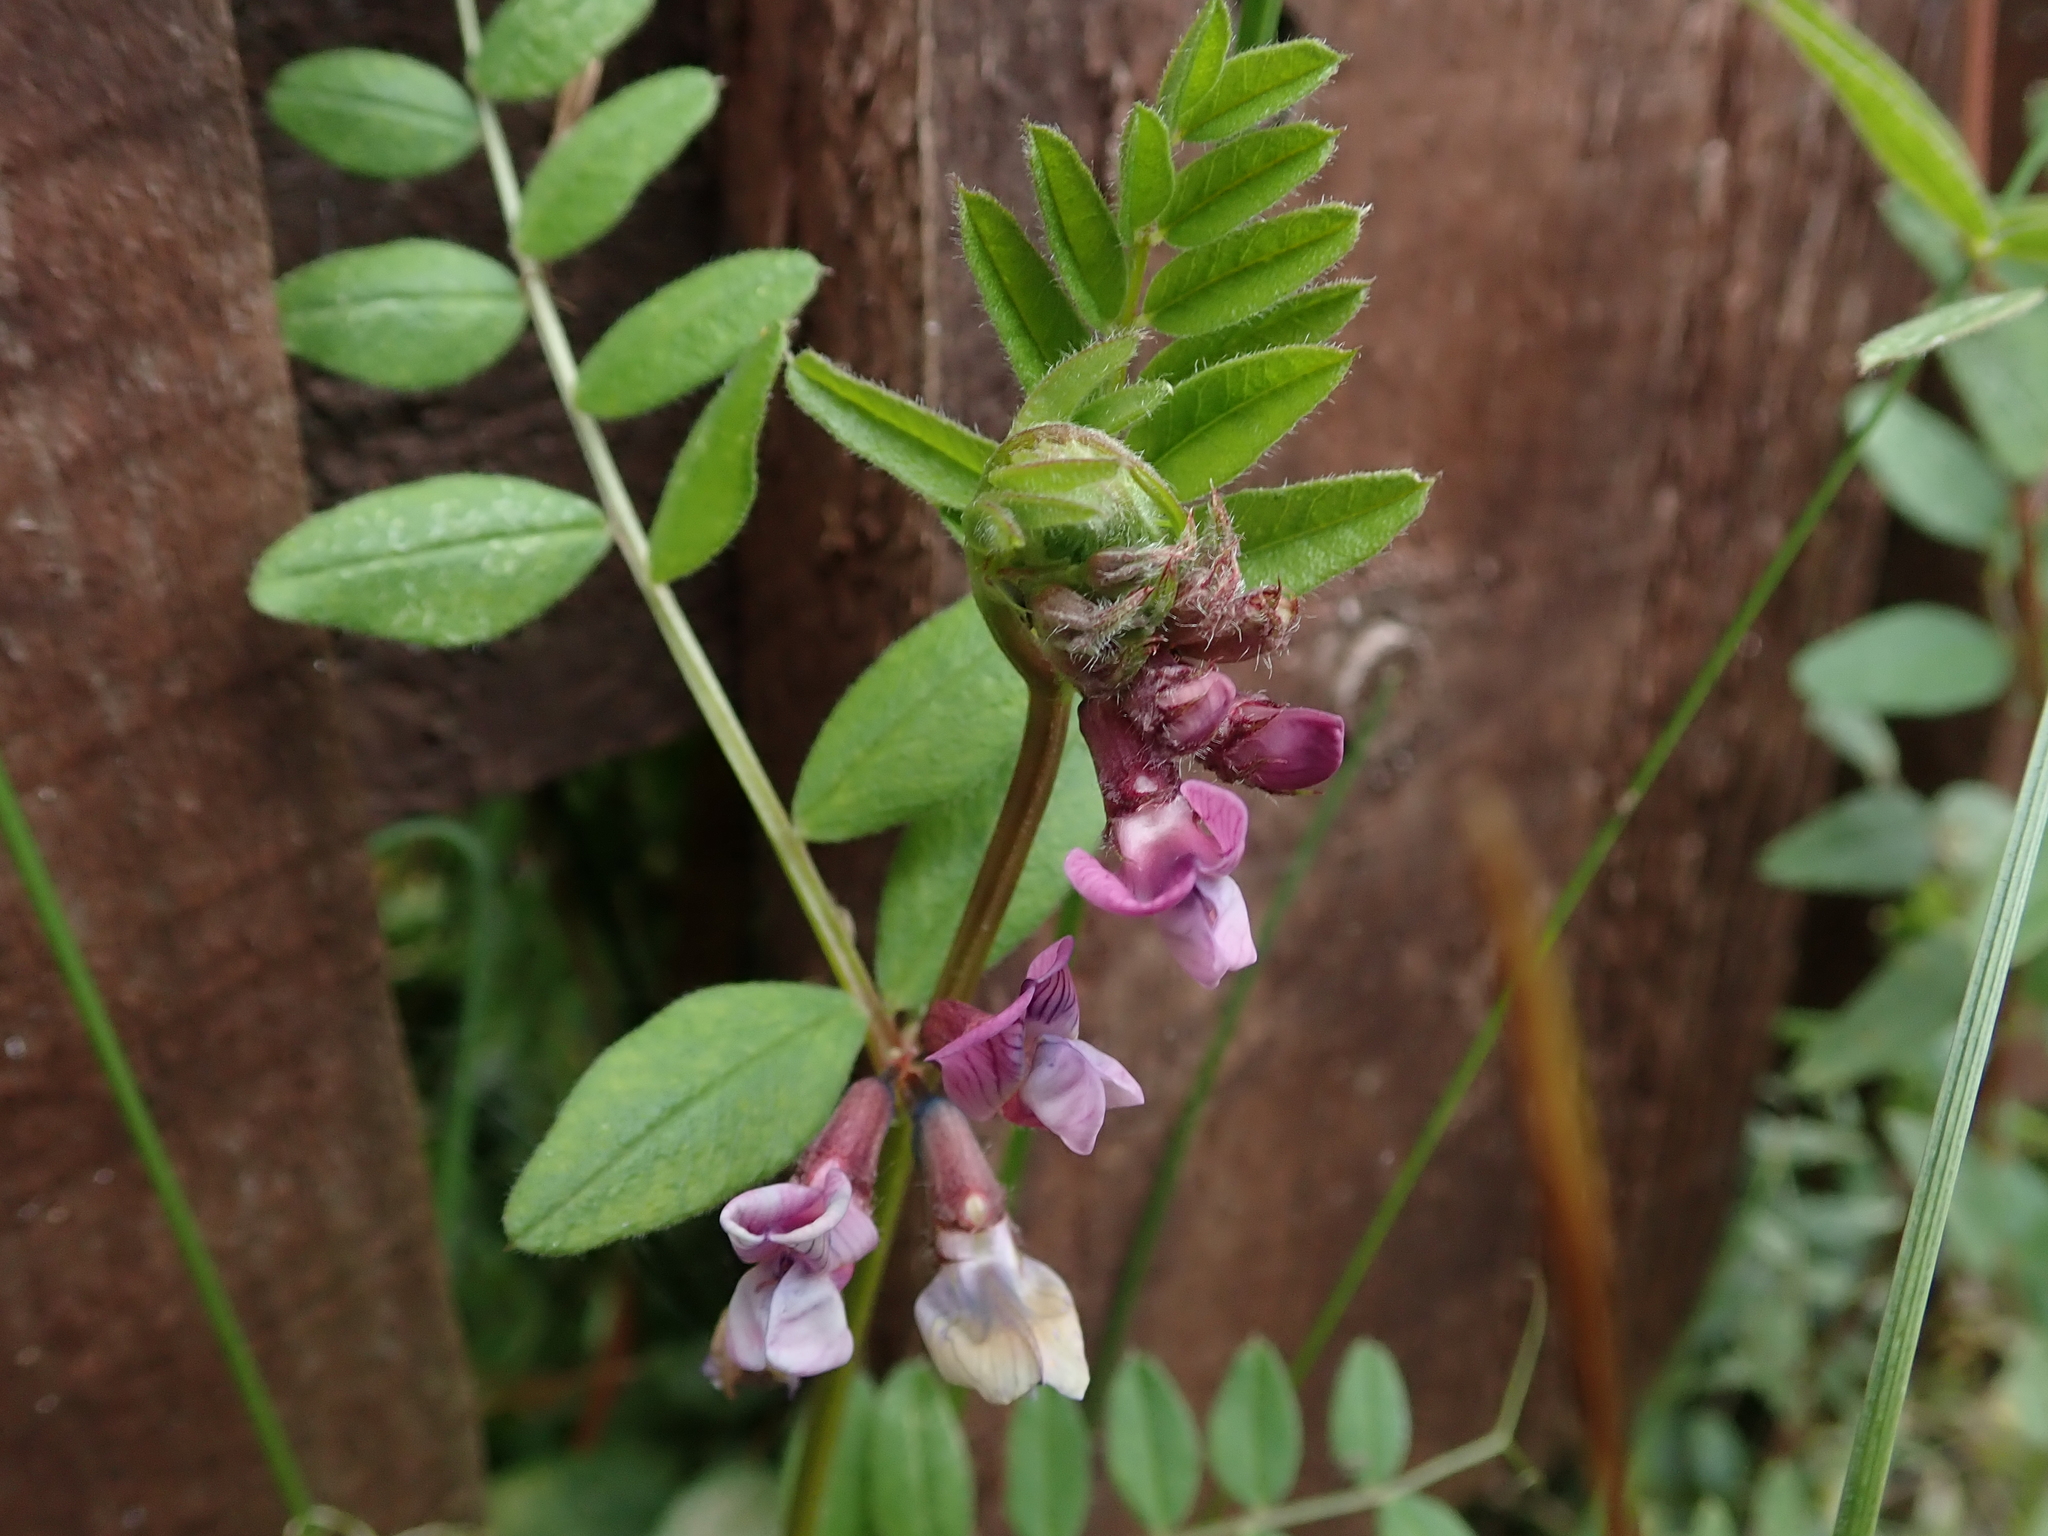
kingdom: Plantae
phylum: Tracheophyta
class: Magnoliopsida
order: Fabales
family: Fabaceae
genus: Vicia
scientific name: Vicia sepium
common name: Bush vetch
